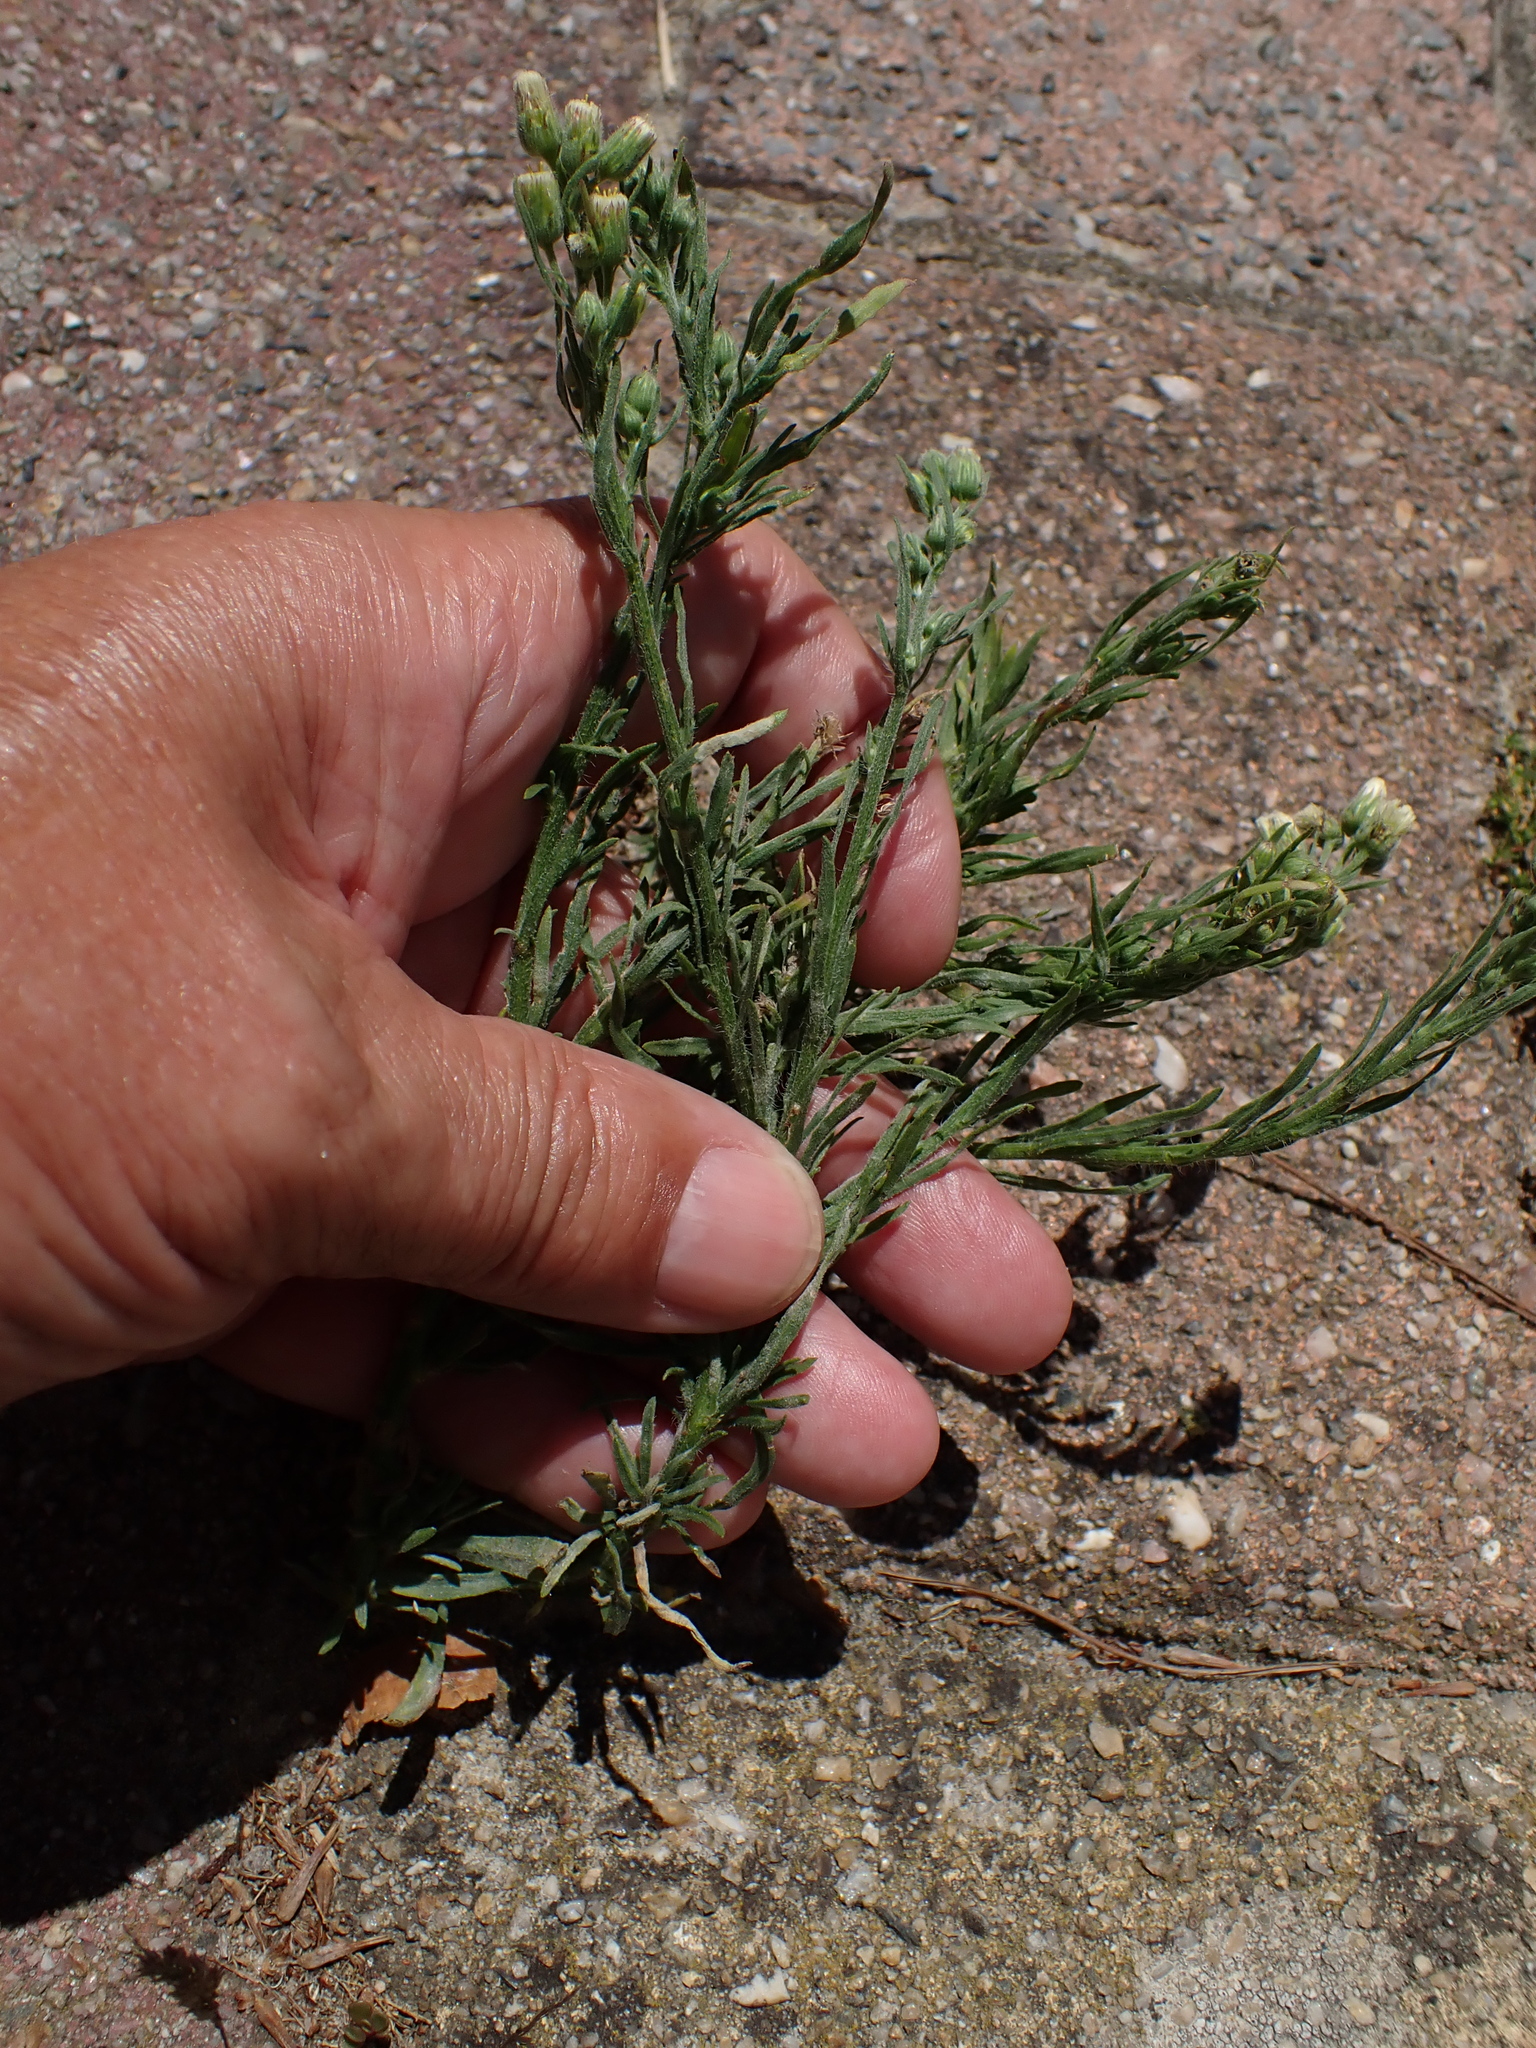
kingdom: Plantae
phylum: Tracheophyta
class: Magnoliopsida
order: Asterales
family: Asteraceae
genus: Erigeron
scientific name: Erigeron bonariensis
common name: Argentine fleabane
